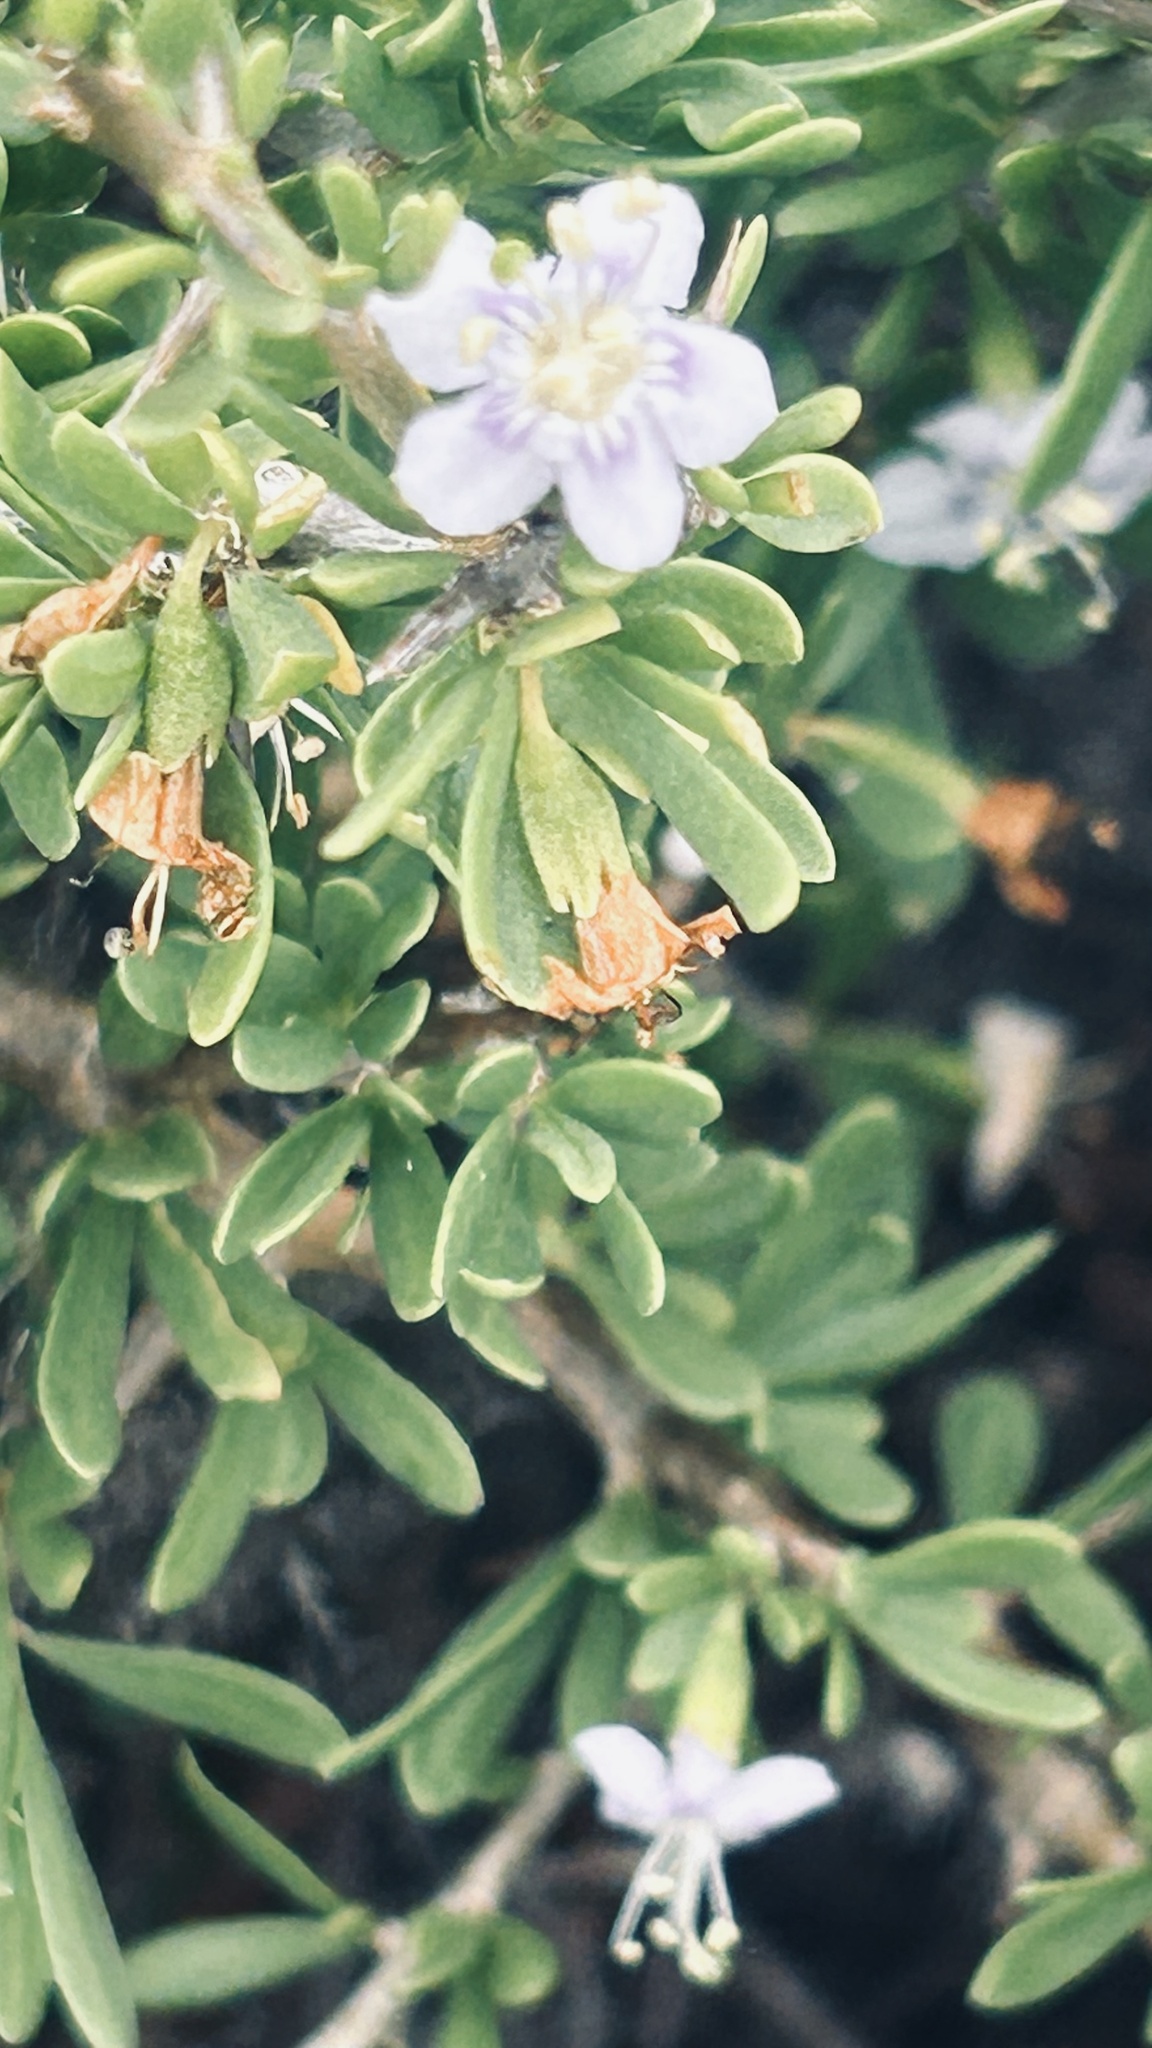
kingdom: Plantae
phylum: Tracheophyta
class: Magnoliopsida
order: Solanales
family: Solanaceae
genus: Lycium
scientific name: Lycium ferocissimum
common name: African boxthorn
